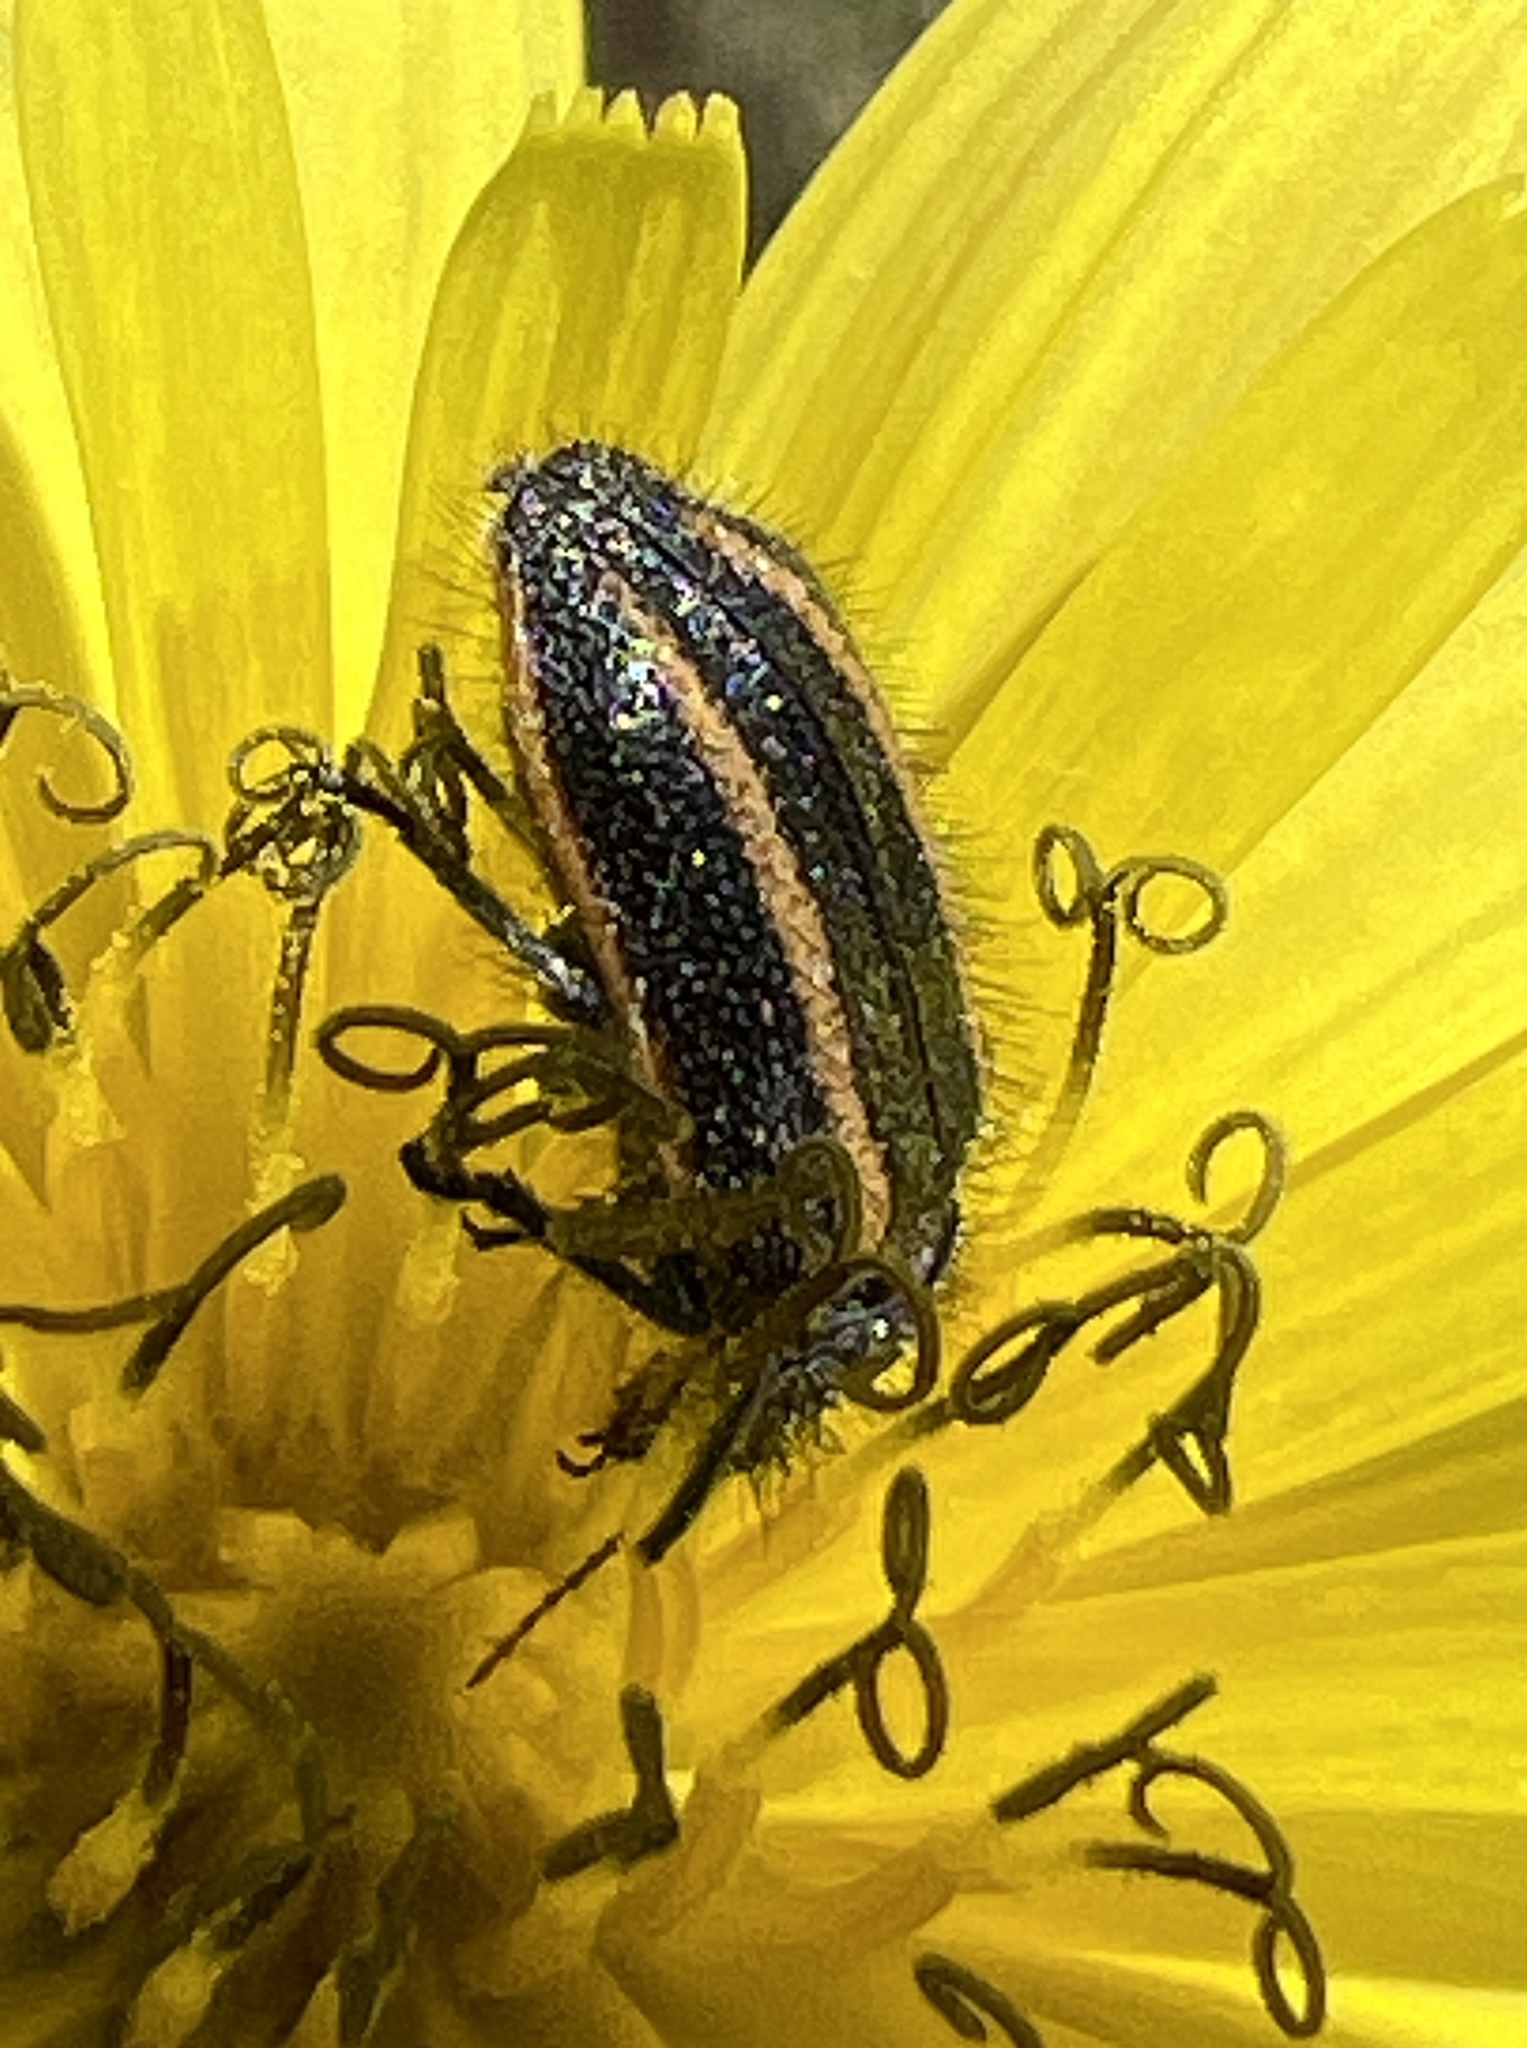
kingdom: Animalia
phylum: Arthropoda
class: Insecta
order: Coleoptera
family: Melyridae
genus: Astylus
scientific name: Astylus
